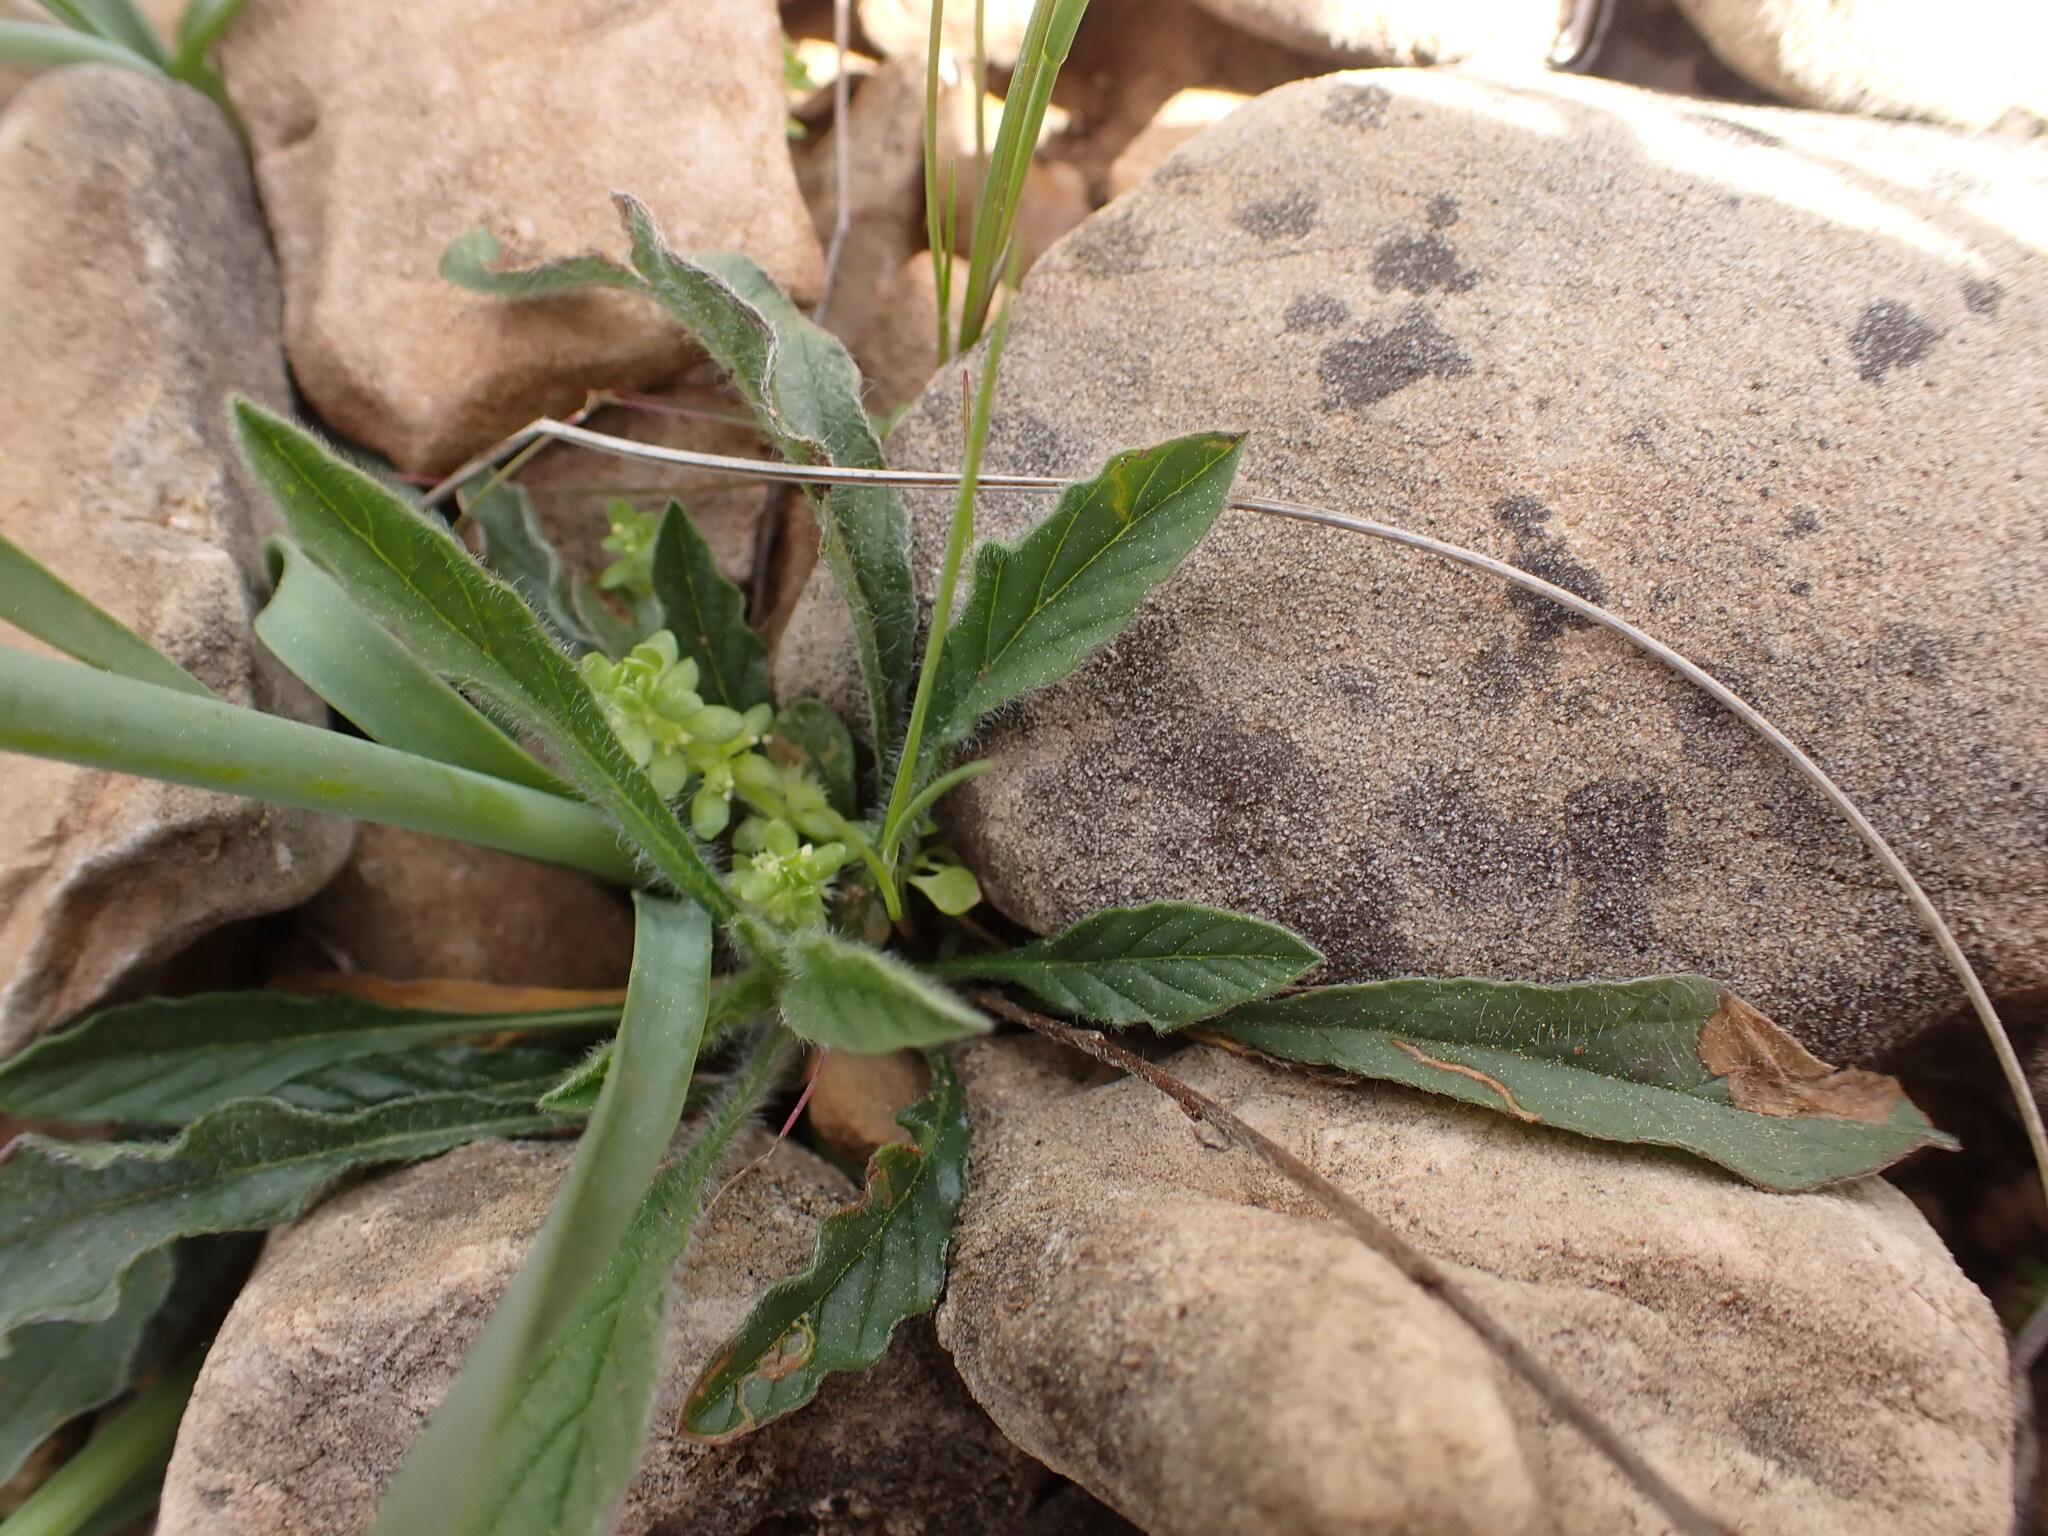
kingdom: Plantae
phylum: Tracheophyta
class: Magnoliopsida
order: Solanales
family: Convolvulaceae
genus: Convolvulus
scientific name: Convolvulus cantabrica
